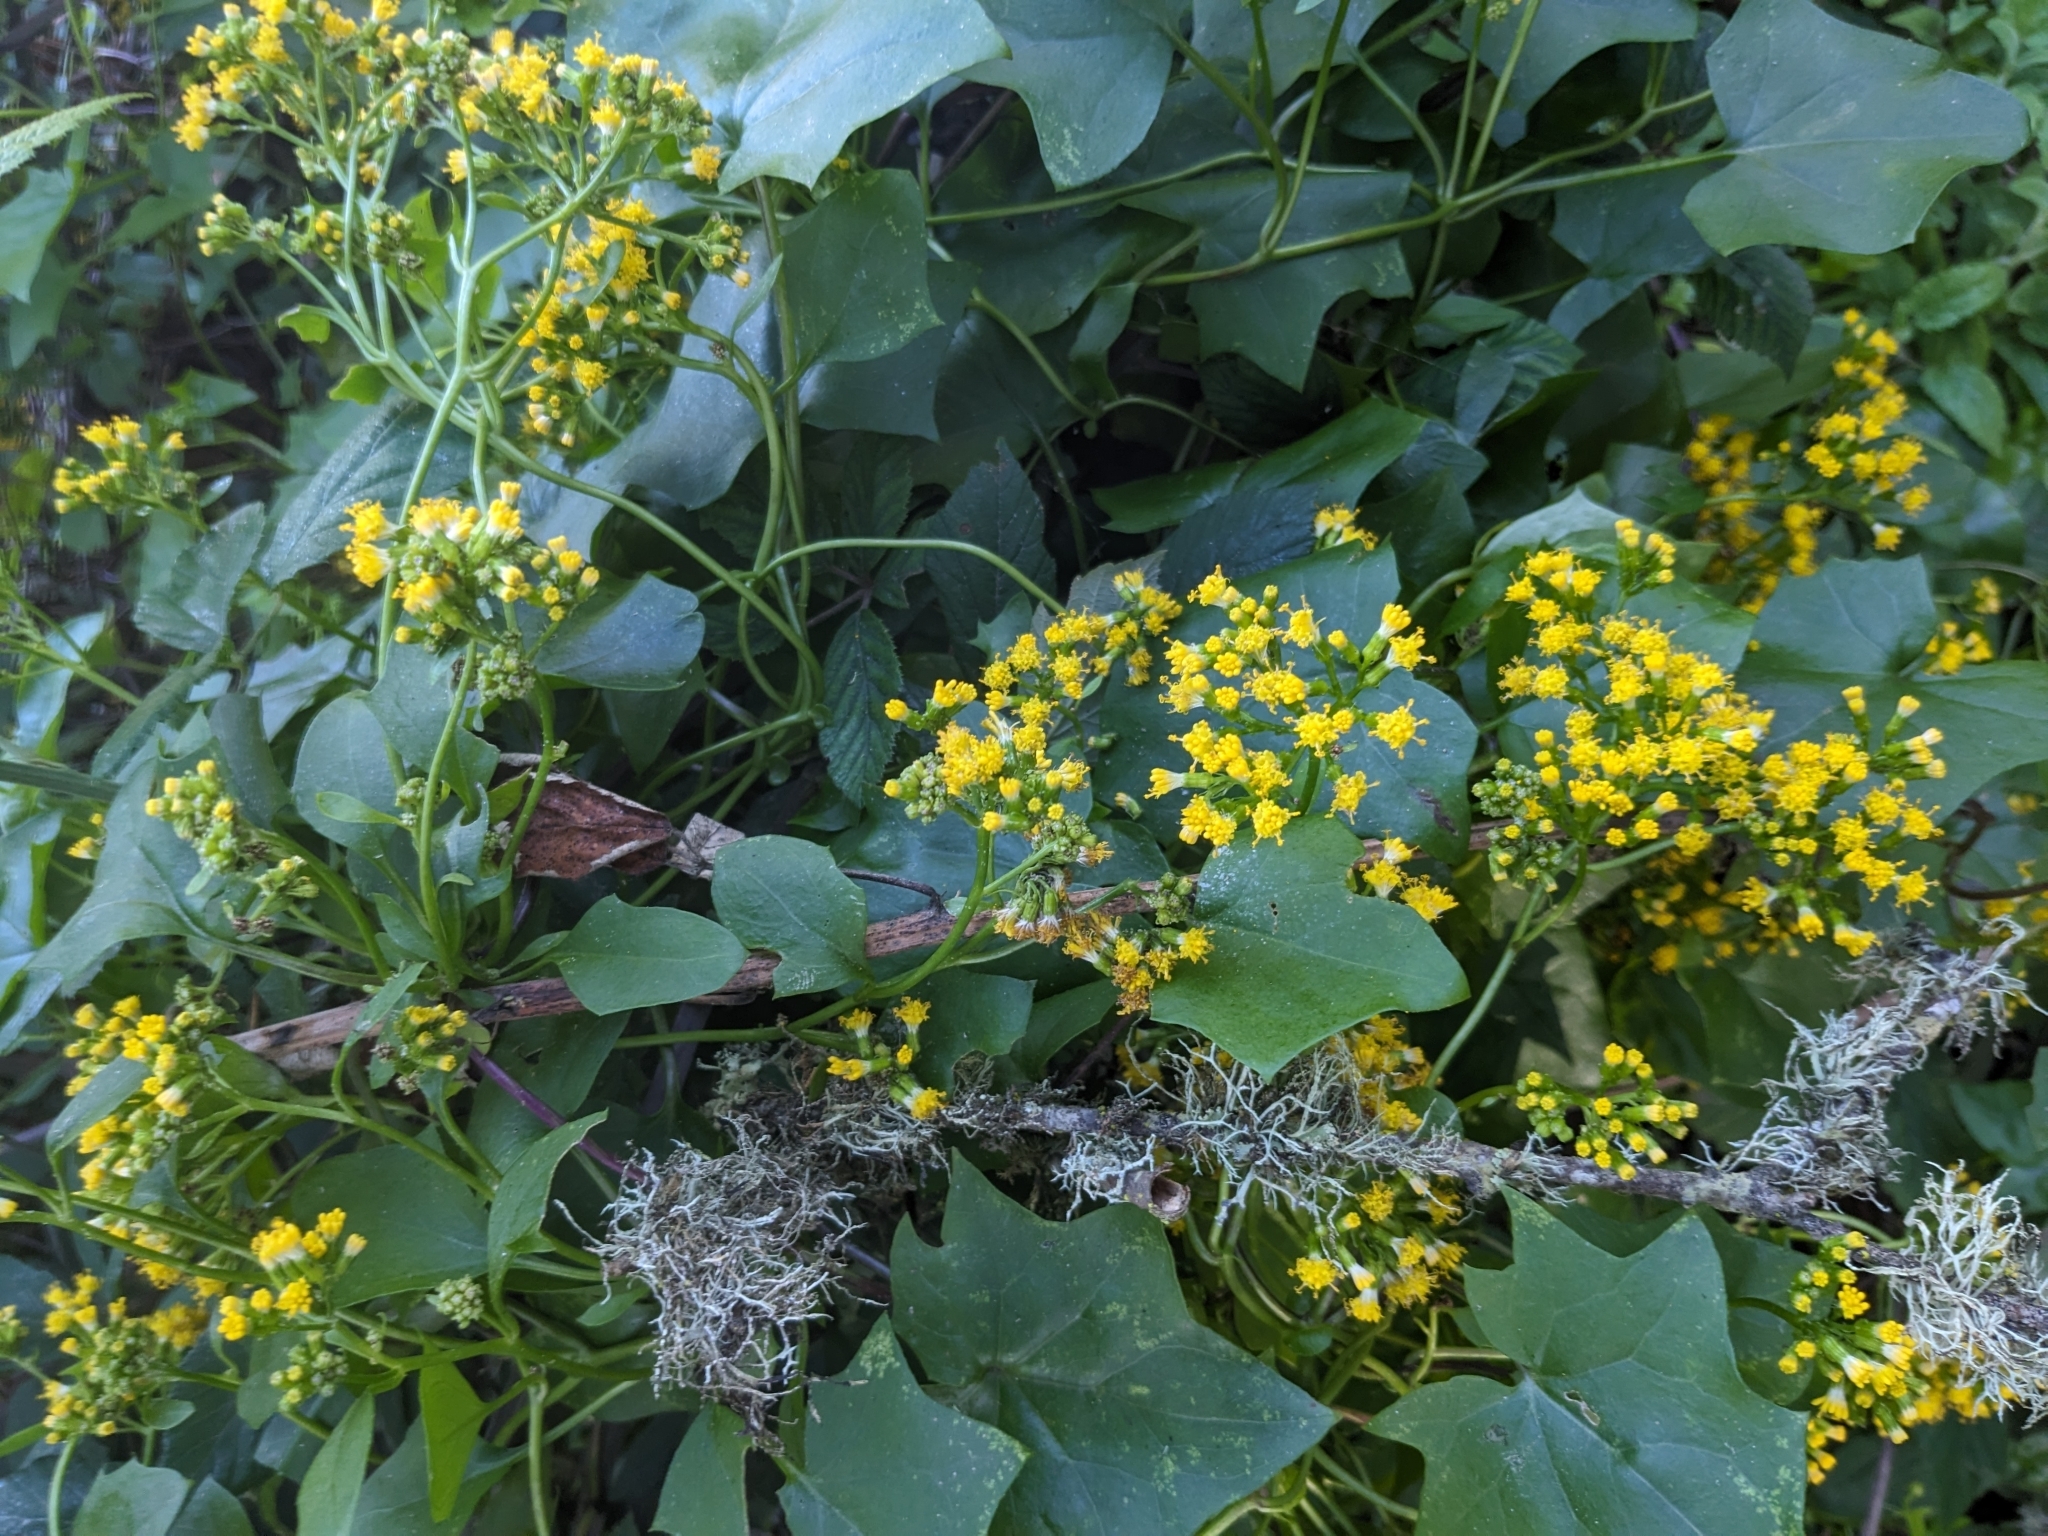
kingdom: Plantae
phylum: Tracheophyta
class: Magnoliopsida
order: Asterales
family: Asteraceae
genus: Delairea
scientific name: Delairea odorata
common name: Cape-ivy
